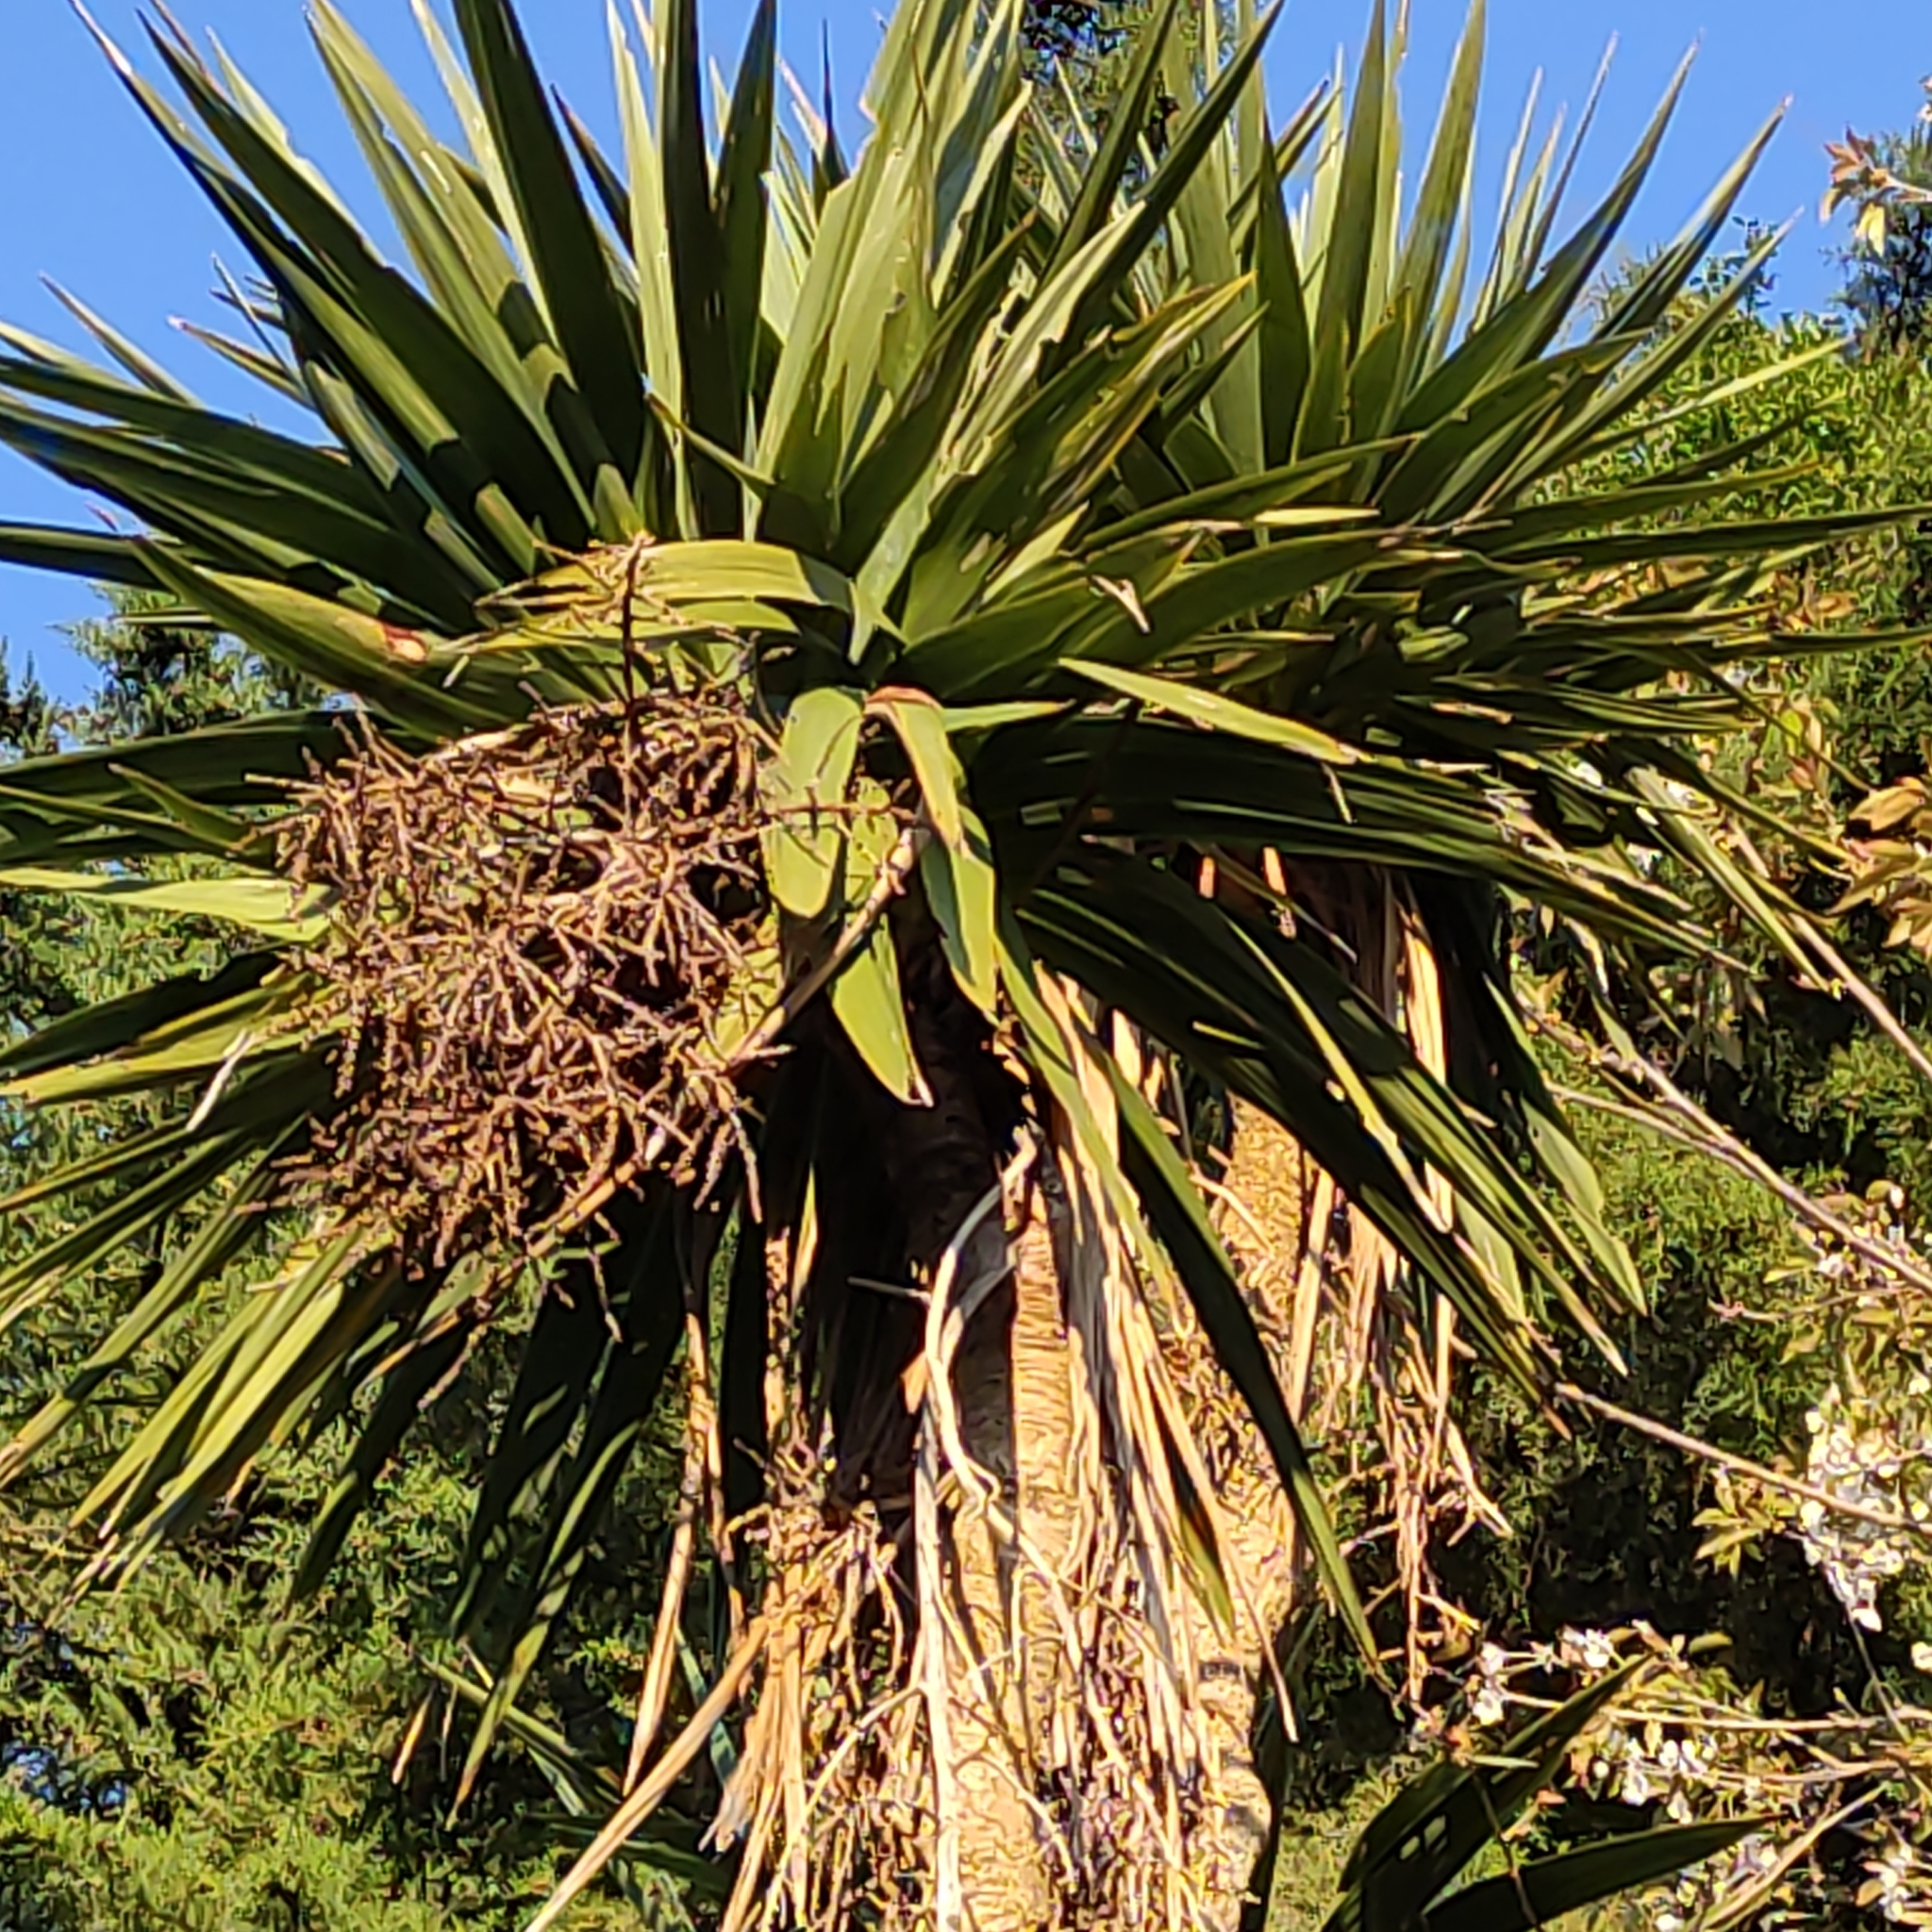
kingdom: Plantae
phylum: Tracheophyta
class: Liliopsida
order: Asparagales
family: Asparagaceae
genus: Cordyline
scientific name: Cordyline australis
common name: Cabbage-palm
